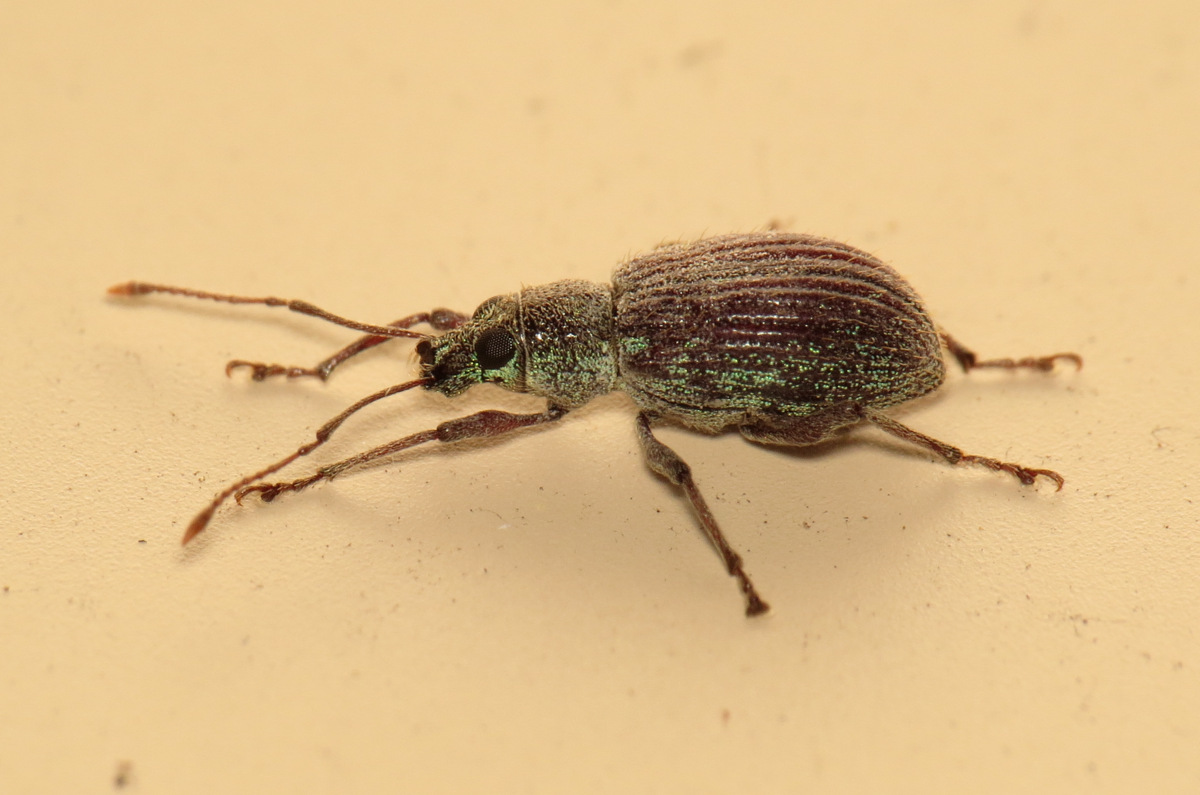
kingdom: Animalia
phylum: Arthropoda
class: Insecta
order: Coleoptera
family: Curculionidae
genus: Cyrtepistomus
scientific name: Cyrtepistomus castaneus
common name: Weevil
